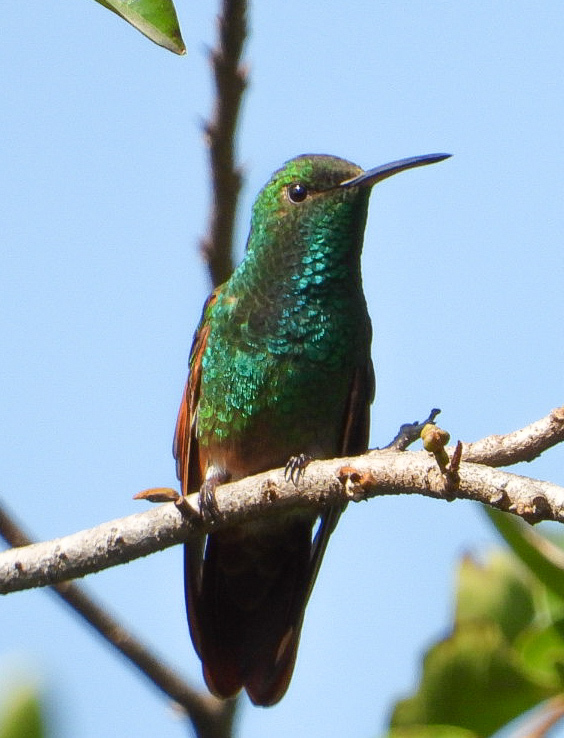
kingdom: Animalia
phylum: Chordata
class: Aves
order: Apodiformes
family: Trochilidae
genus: Saucerottia
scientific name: Saucerottia beryllina
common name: Berylline hummingbird
